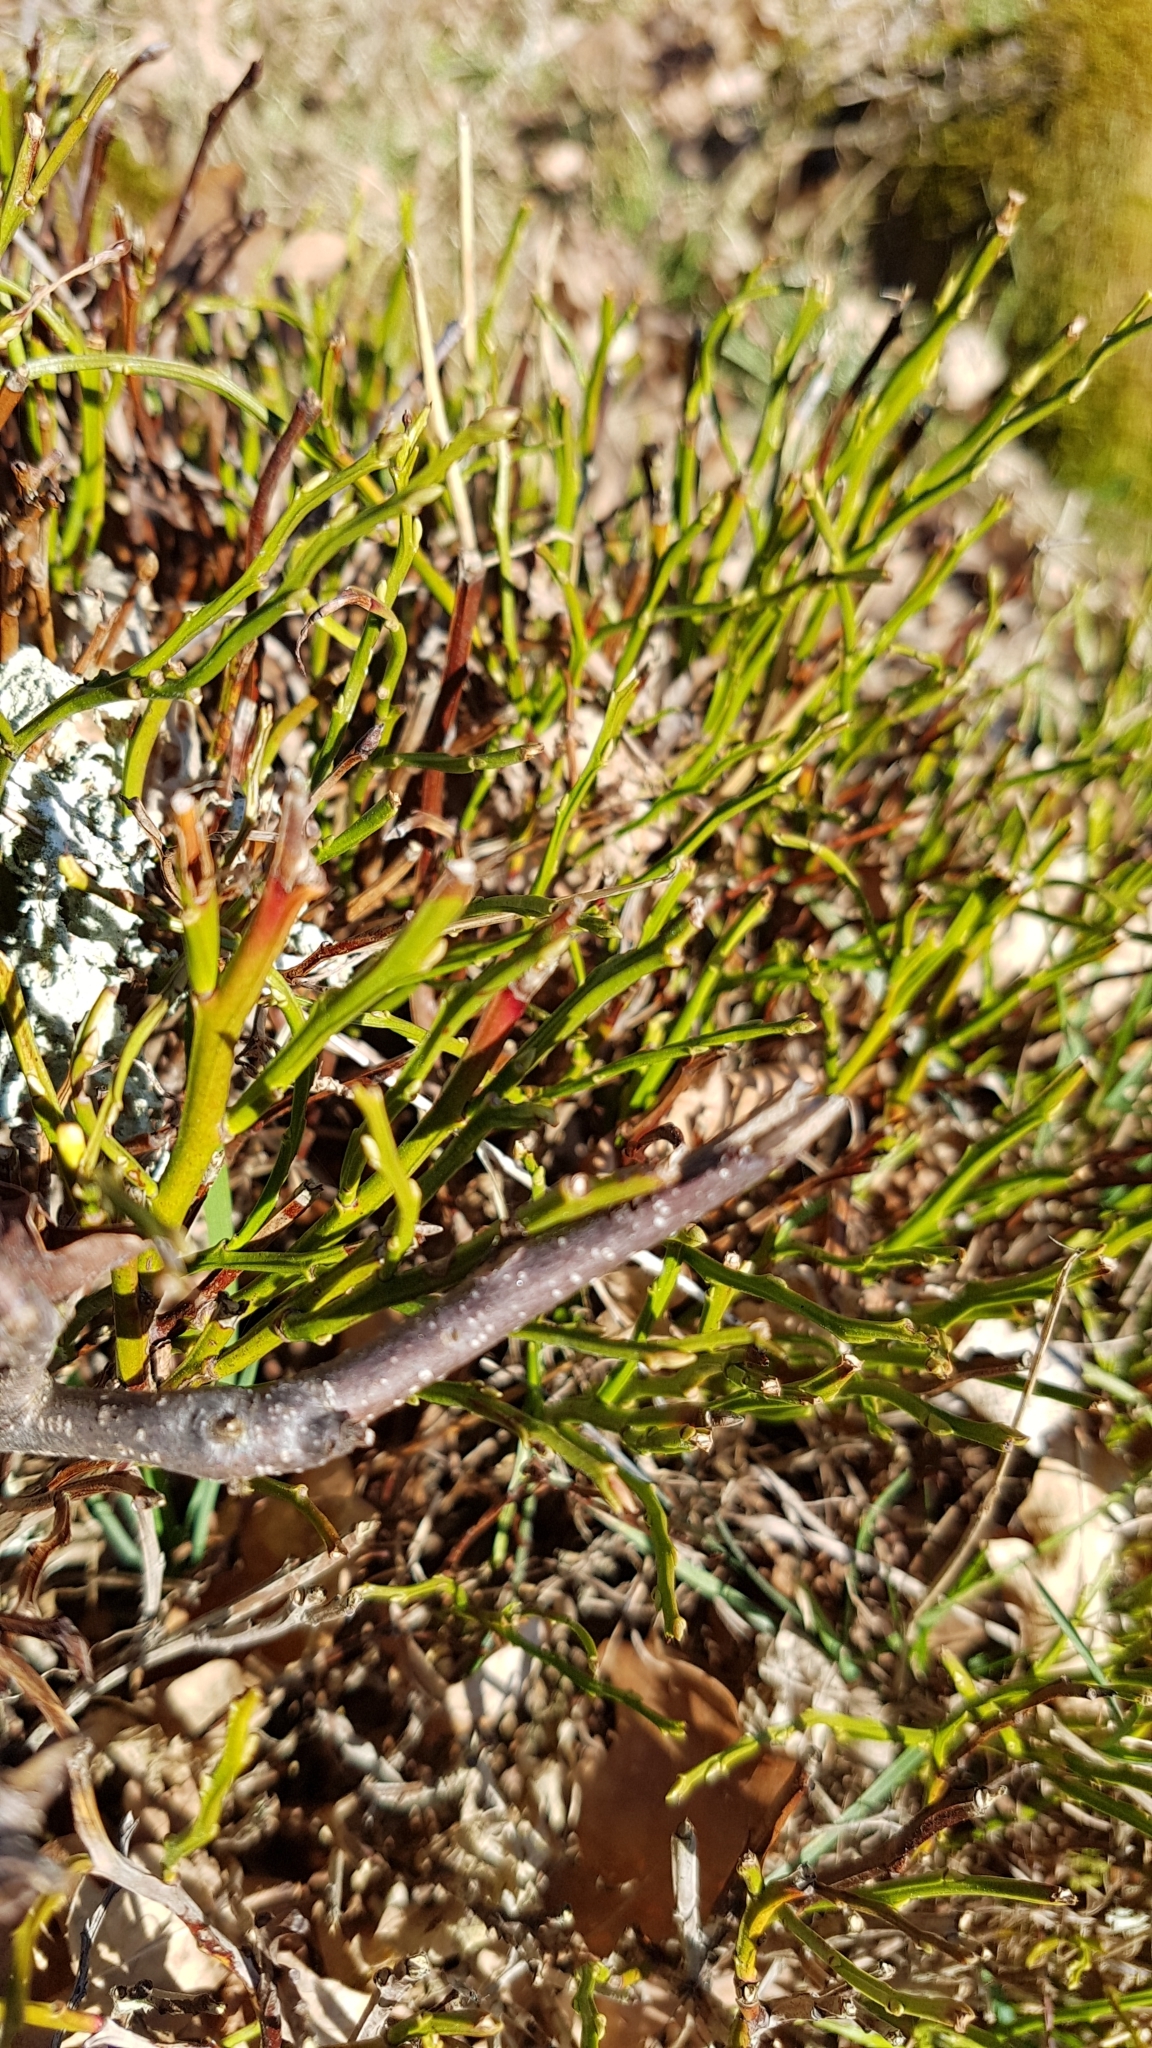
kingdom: Plantae
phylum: Tracheophyta
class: Magnoliopsida
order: Ericales
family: Ericaceae
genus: Vaccinium
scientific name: Vaccinium myrtillus
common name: Bilberry
